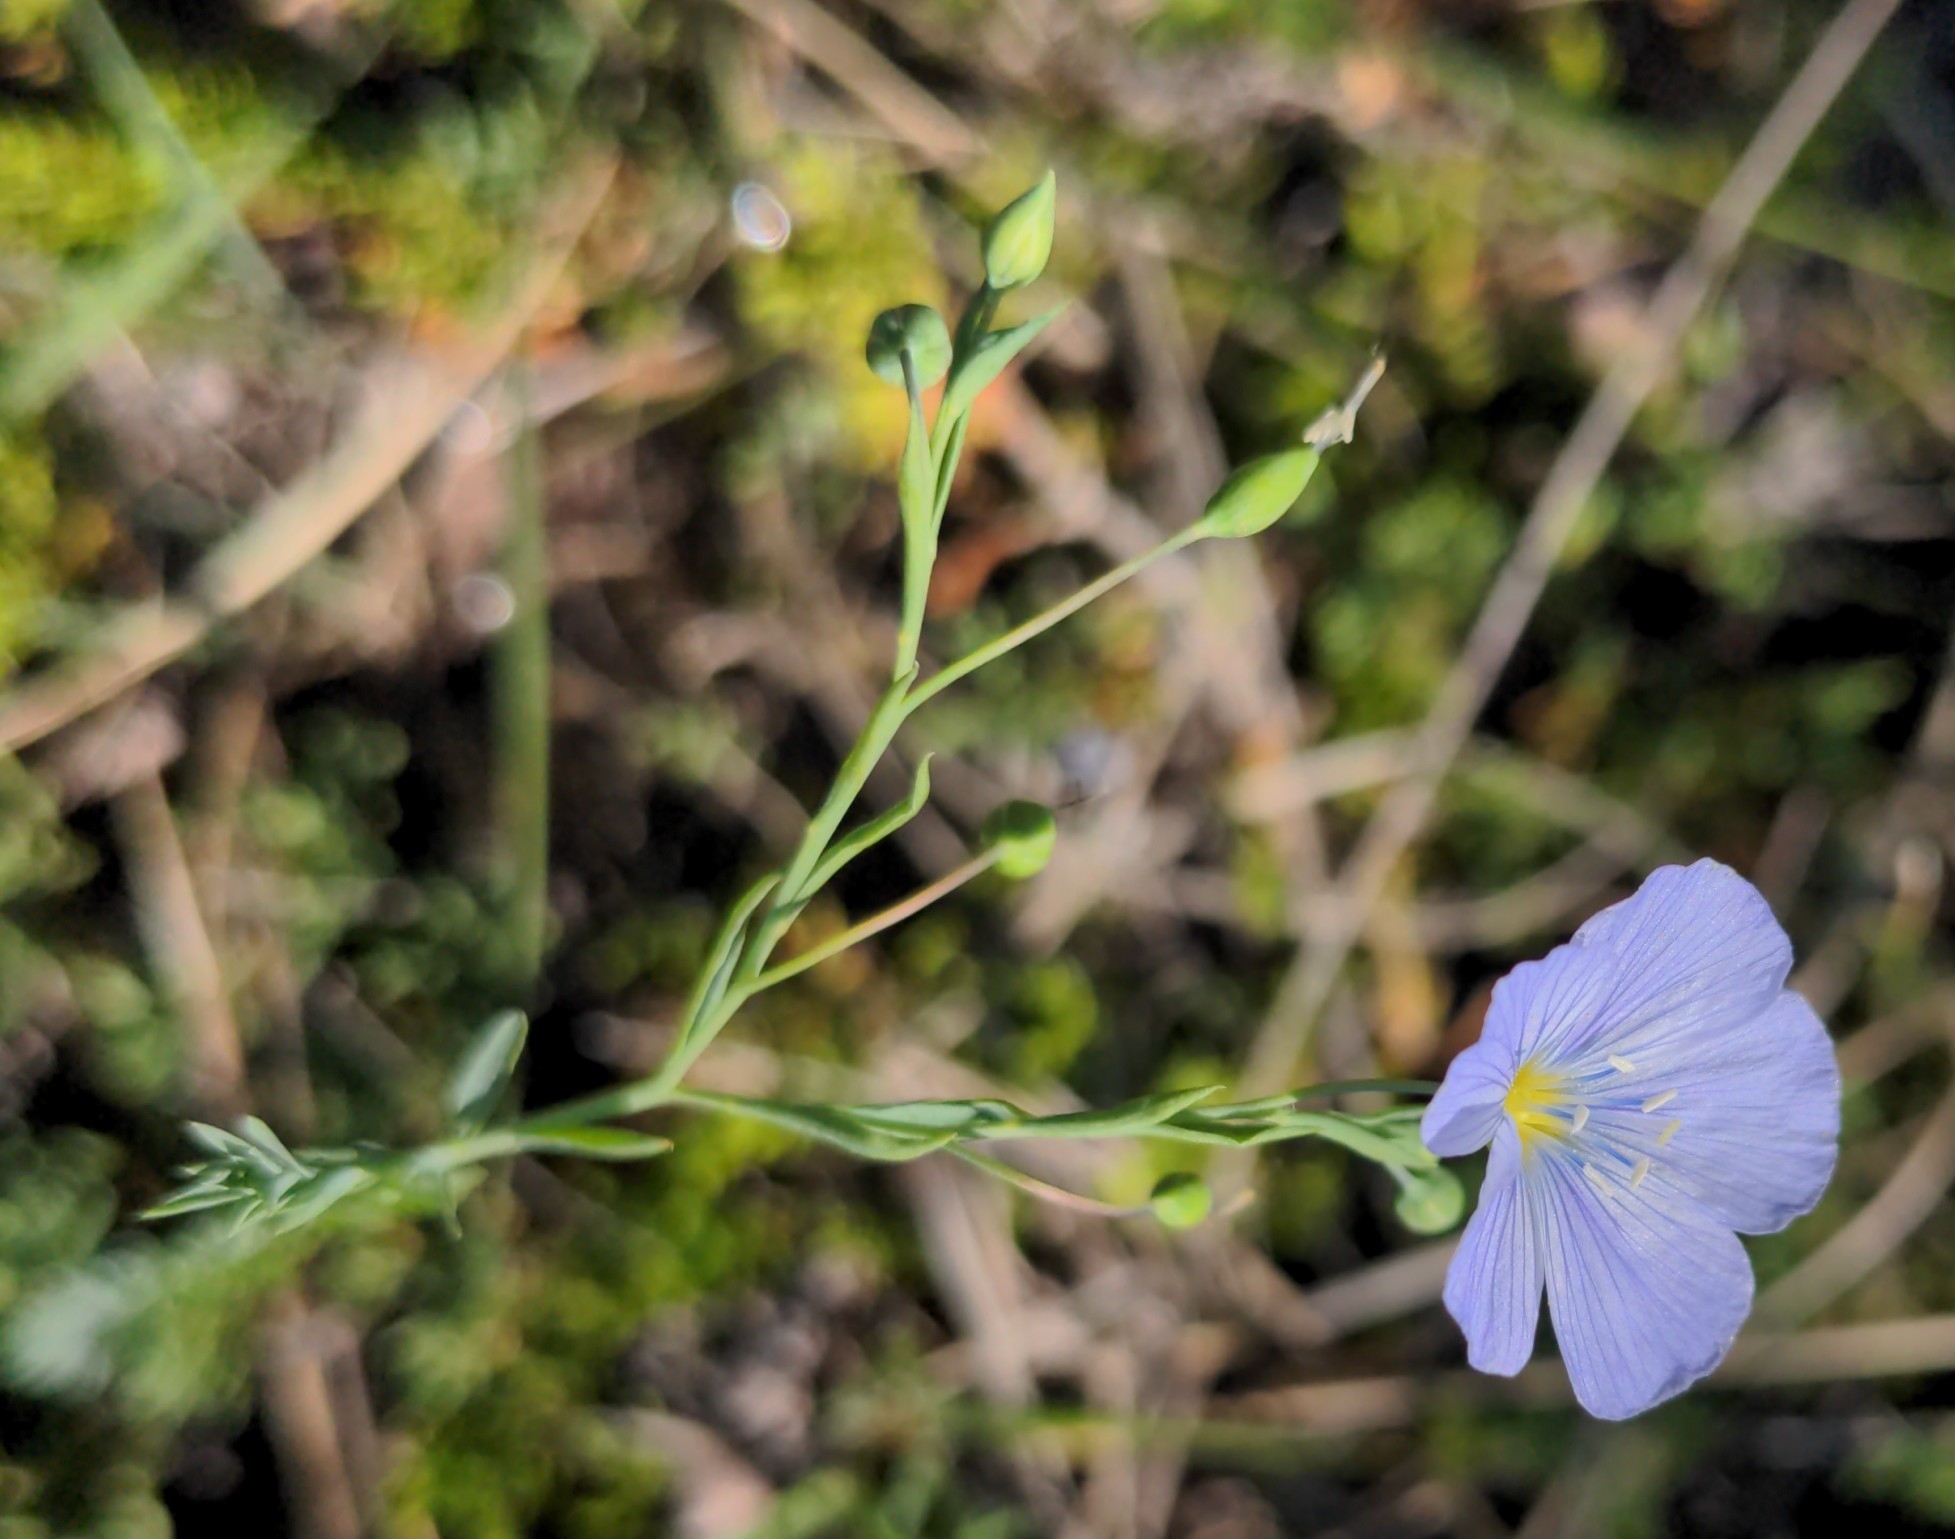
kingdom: Plantae
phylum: Tracheophyta
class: Magnoliopsida
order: Malpighiales
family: Linaceae
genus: Linum
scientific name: Linum lewisii
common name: Prairie flax
